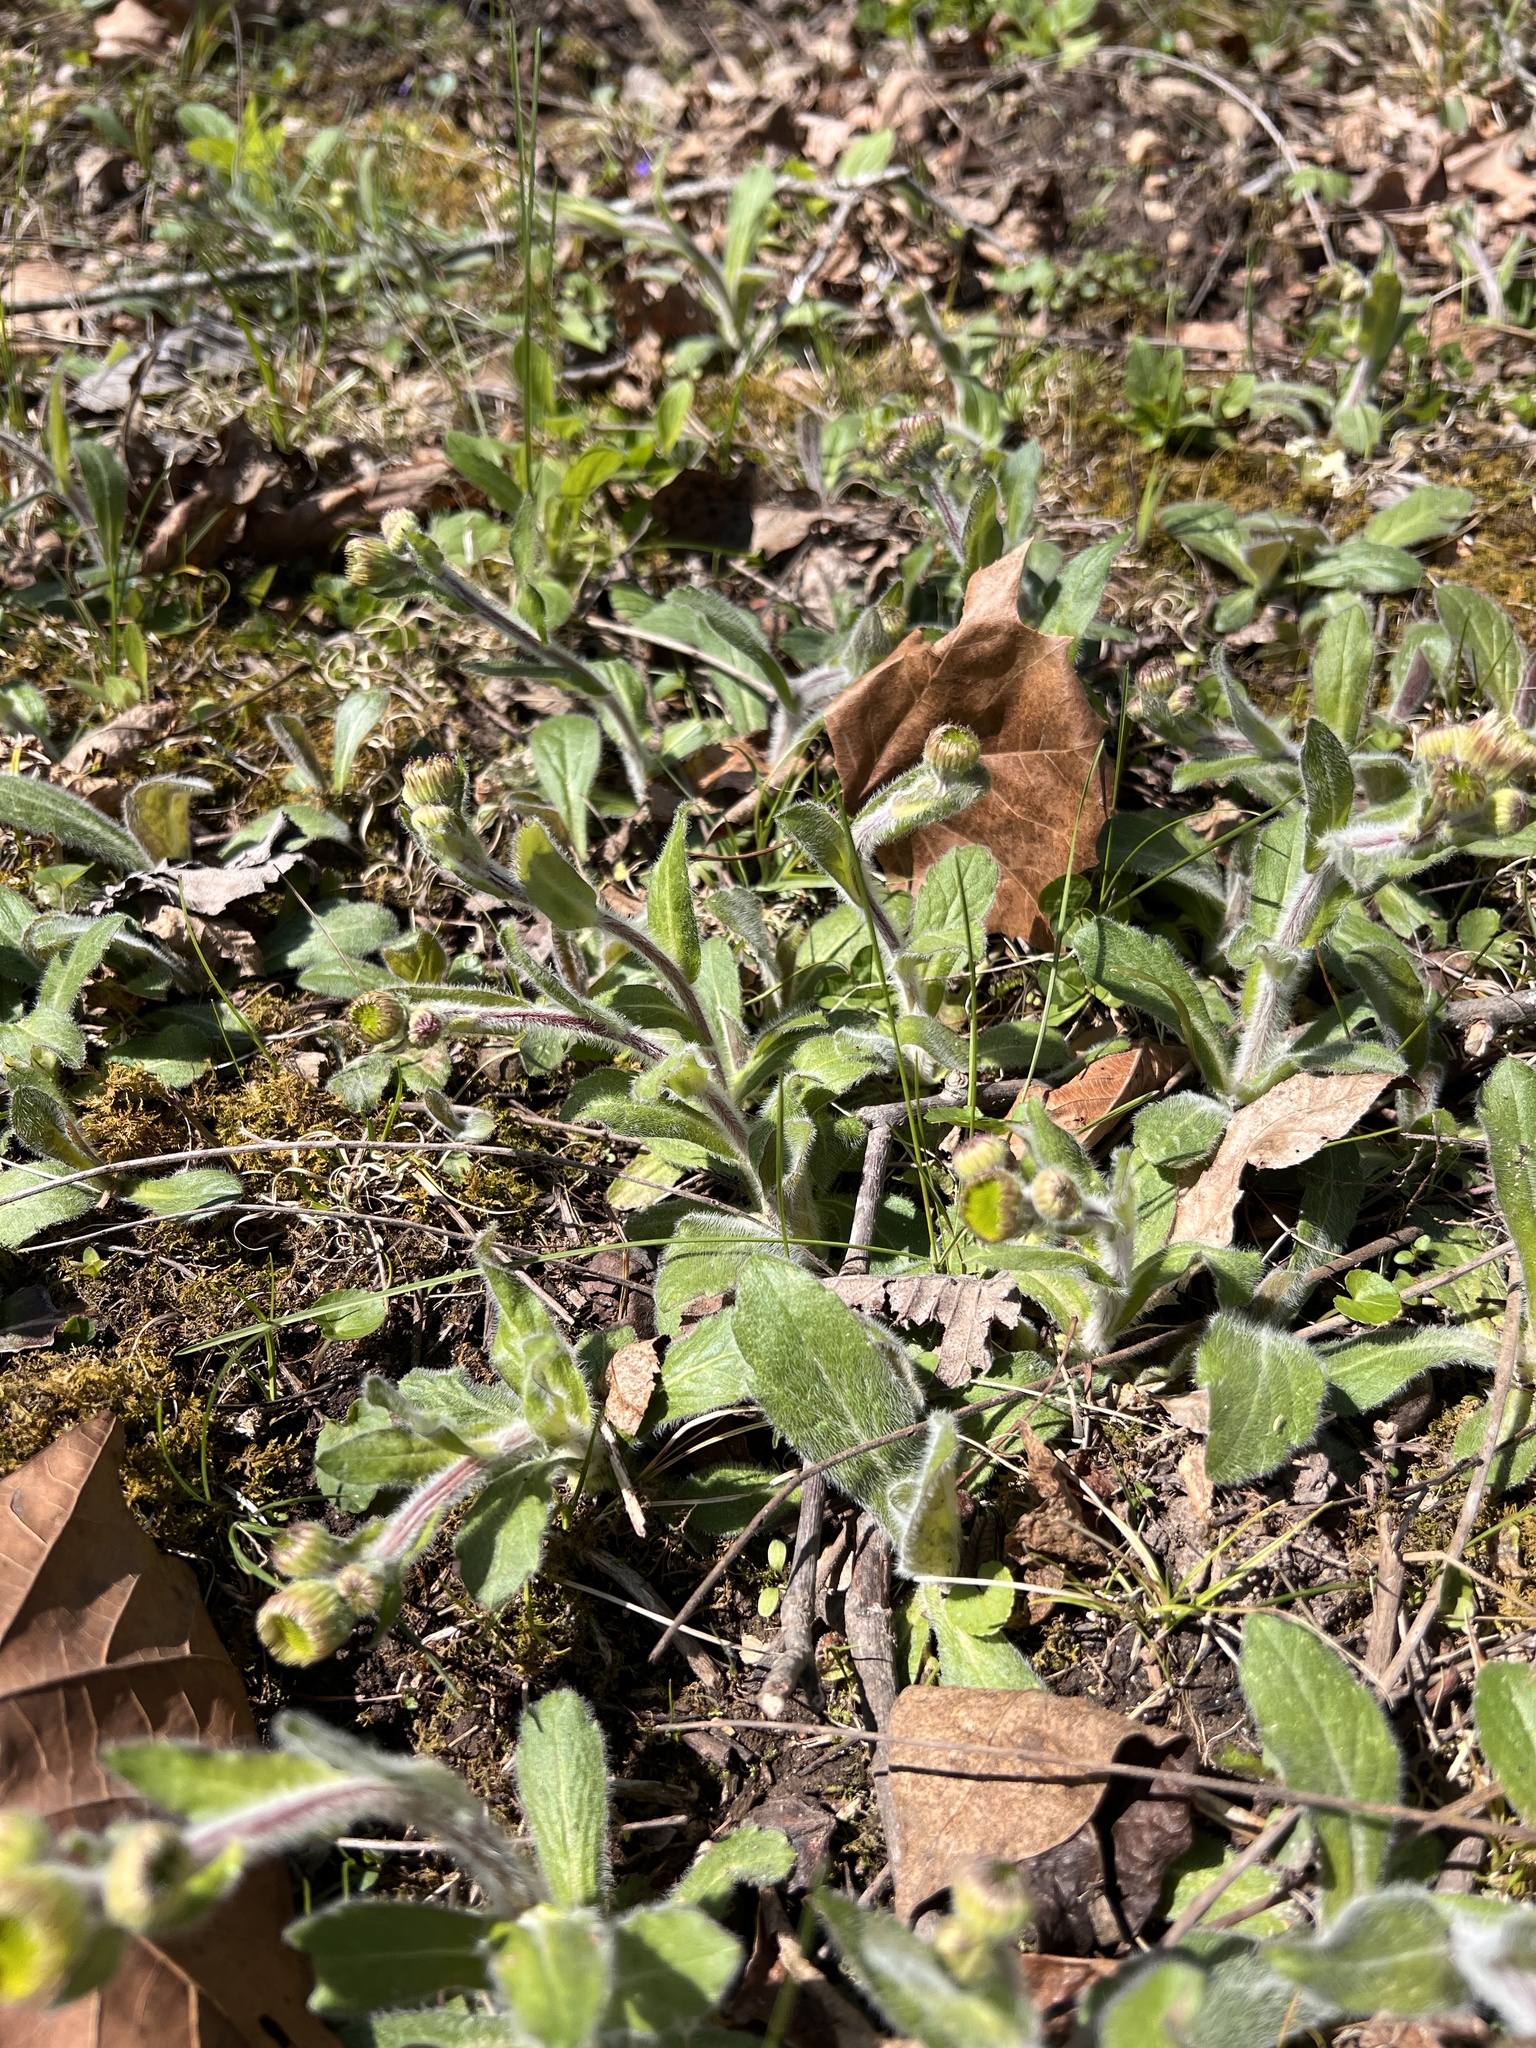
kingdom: Plantae
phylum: Tracheophyta
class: Magnoliopsida
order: Asterales
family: Asteraceae
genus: Erigeron
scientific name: Erigeron pulchellus
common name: Hairy fleabane
